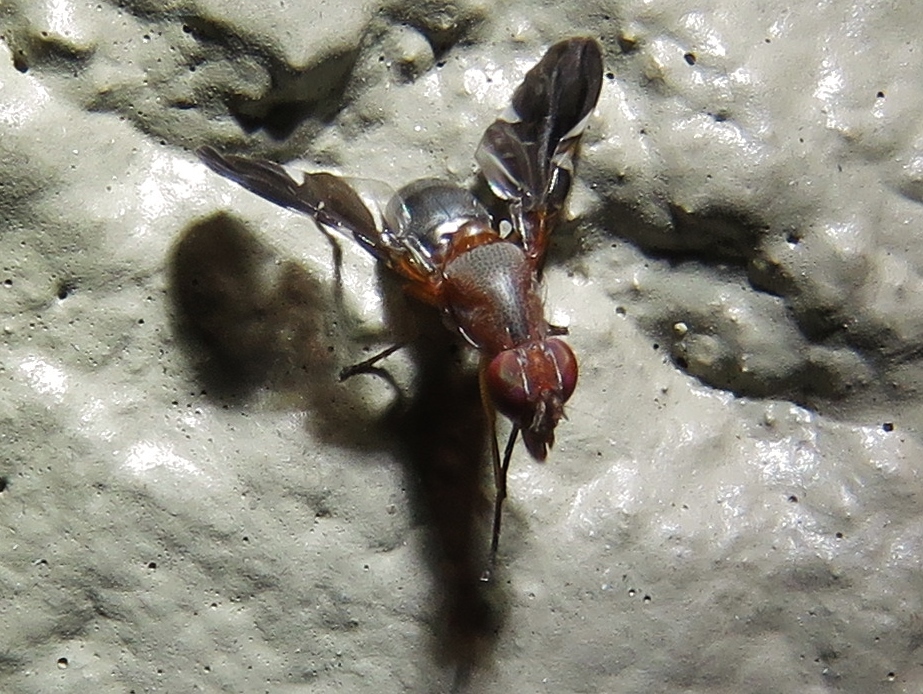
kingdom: Animalia
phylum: Arthropoda
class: Insecta
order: Diptera
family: Ulidiidae
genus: Delphinia
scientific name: Delphinia picta
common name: Common picture-winged fly
